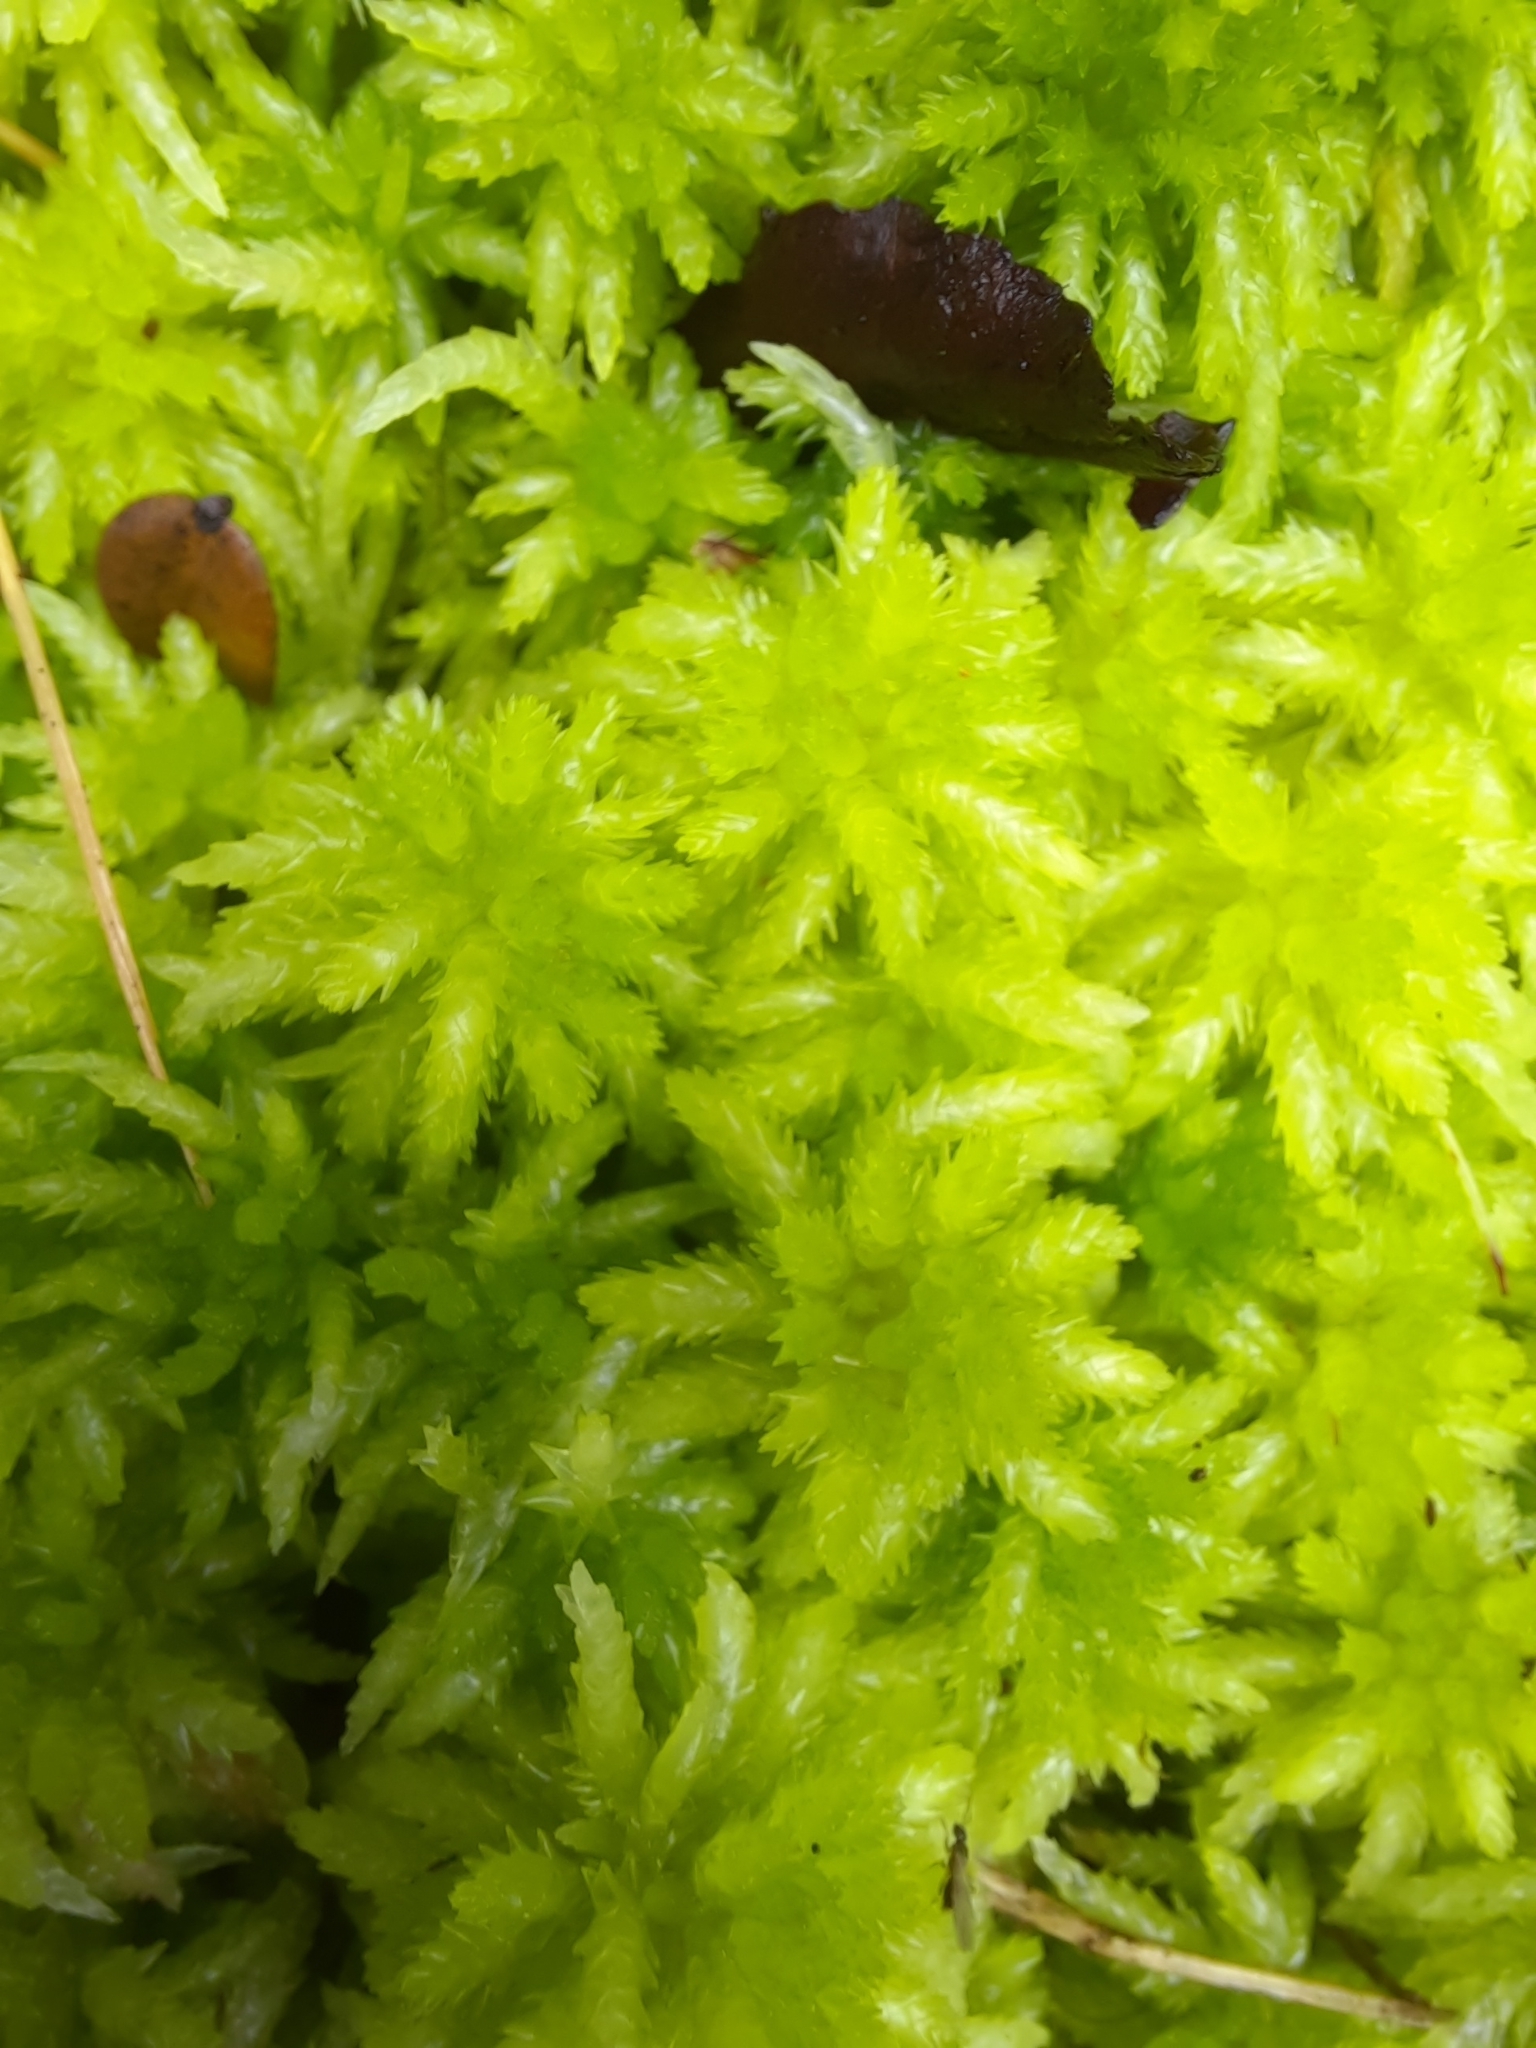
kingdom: Plantae
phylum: Bryophyta
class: Sphagnopsida
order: Sphagnales
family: Sphagnaceae
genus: Sphagnum
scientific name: Sphagnum cristatum
